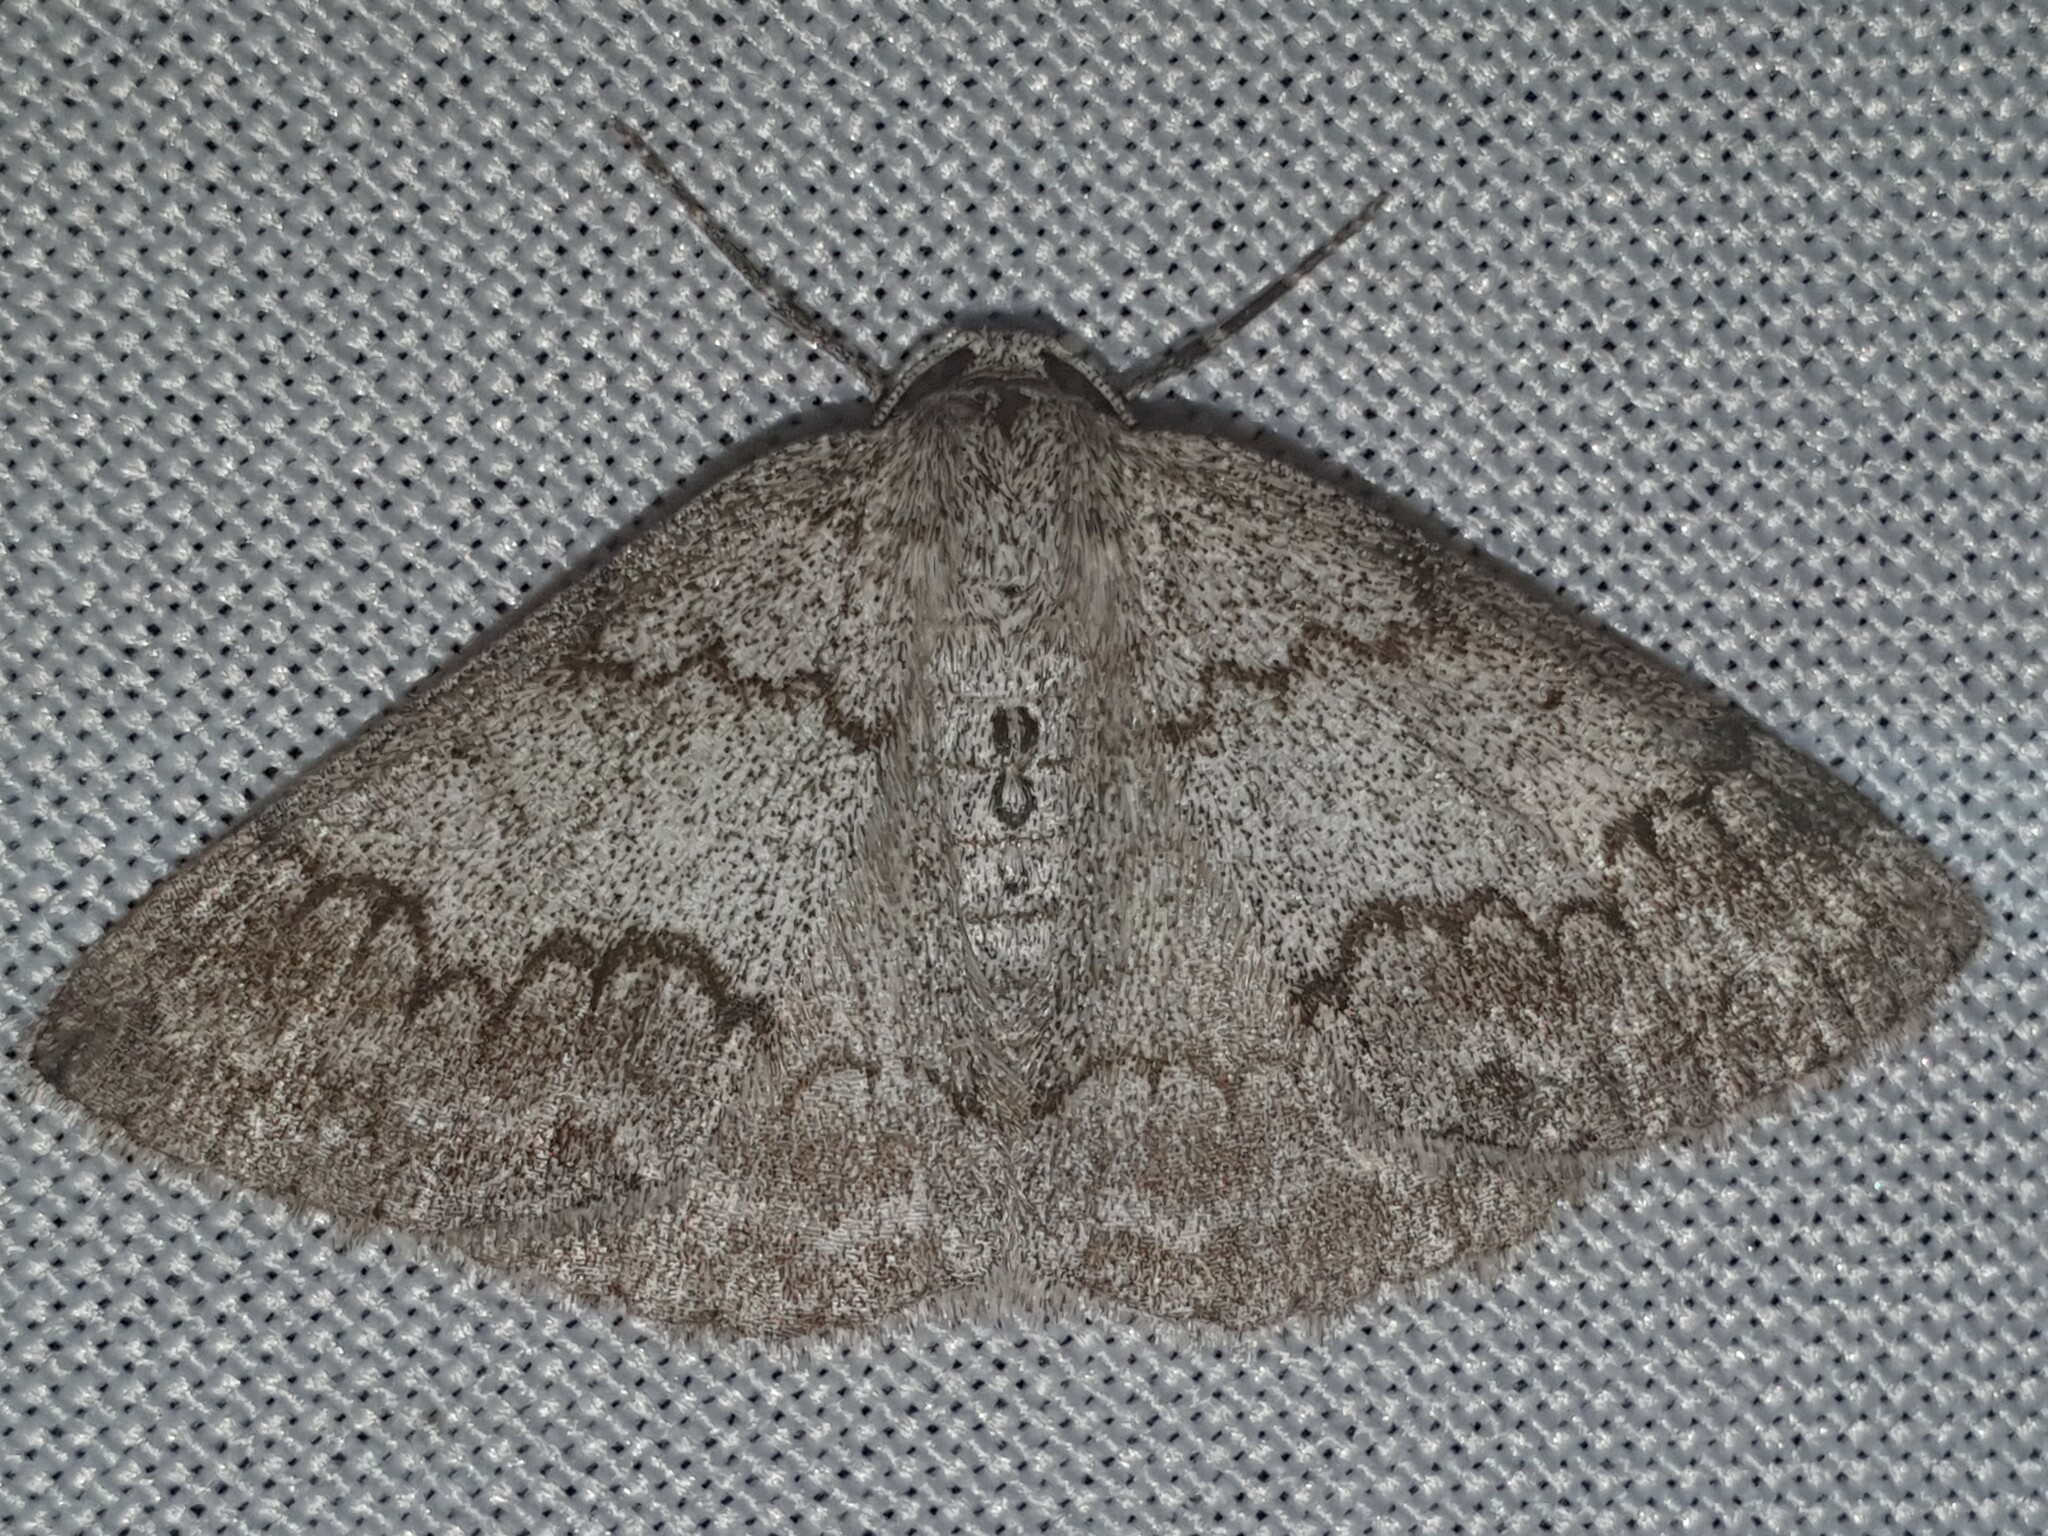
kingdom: Animalia
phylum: Arthropoda
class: Insecta
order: Lepidoptera
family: Geometridae
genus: Pseudoterpna
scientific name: Pseudoterpna coronillaria
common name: Jersey emerald
